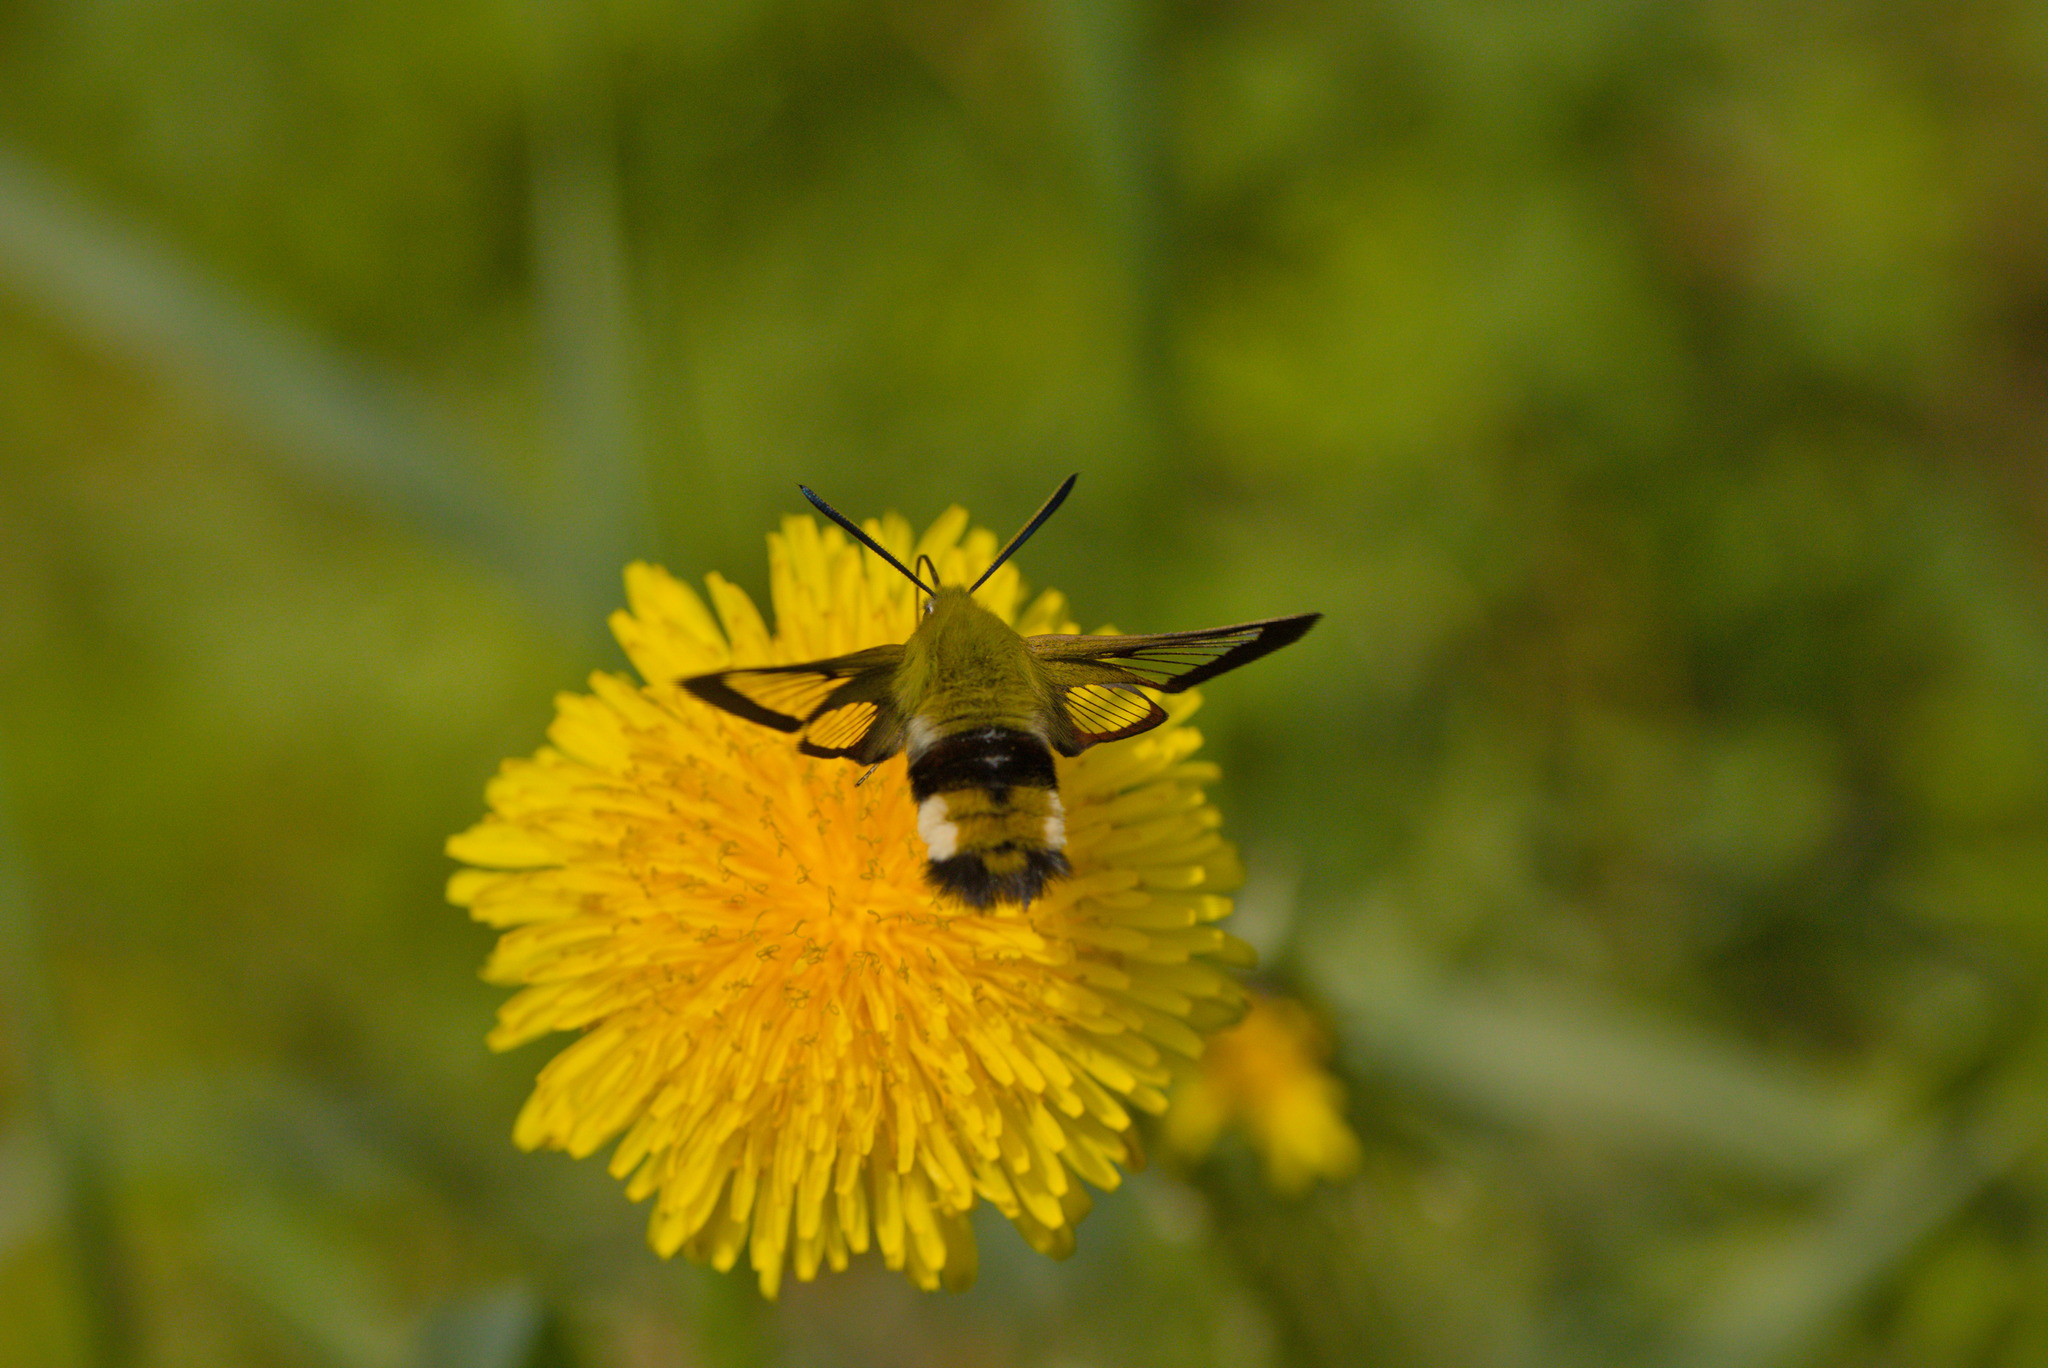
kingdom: Animalia
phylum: Arthropoda
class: Insecta
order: Lepidoptera
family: Sphingidae
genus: Hemaris
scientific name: Hemaris fuciformis
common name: Broad-bordered bee hawk-moth
